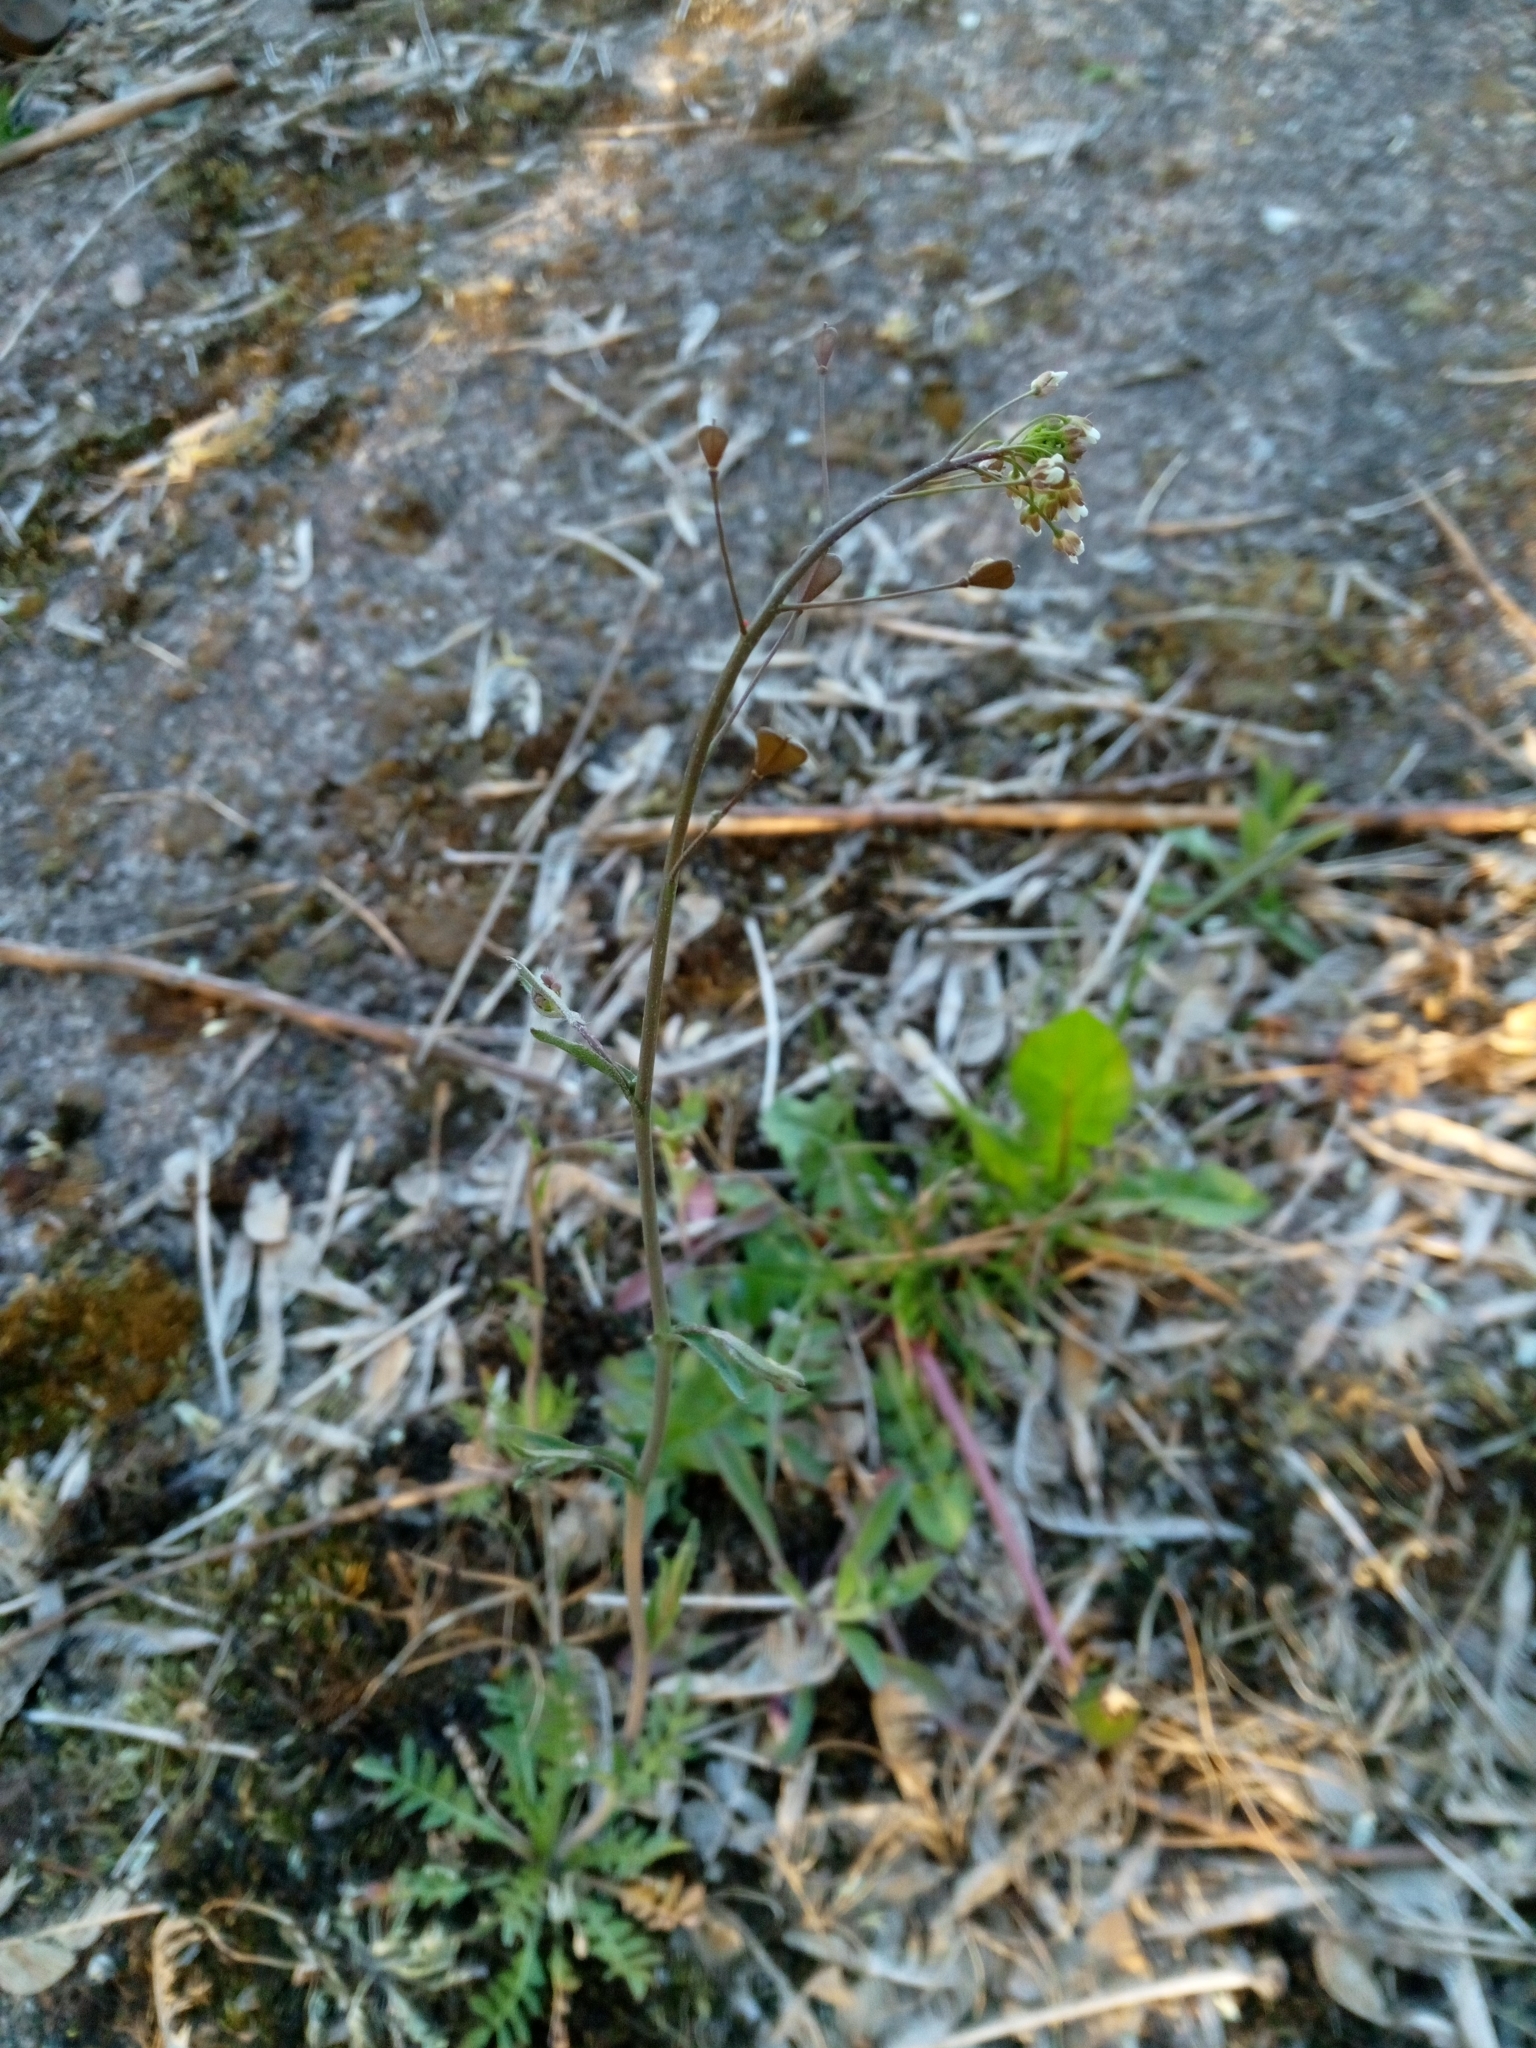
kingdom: Plantae
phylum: Tracheophyta
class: Magnoliopsida
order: Brassicales
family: Brassicaceae
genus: Capsella
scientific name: Capsella bursa-pastoris
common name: Shepherd's purse
